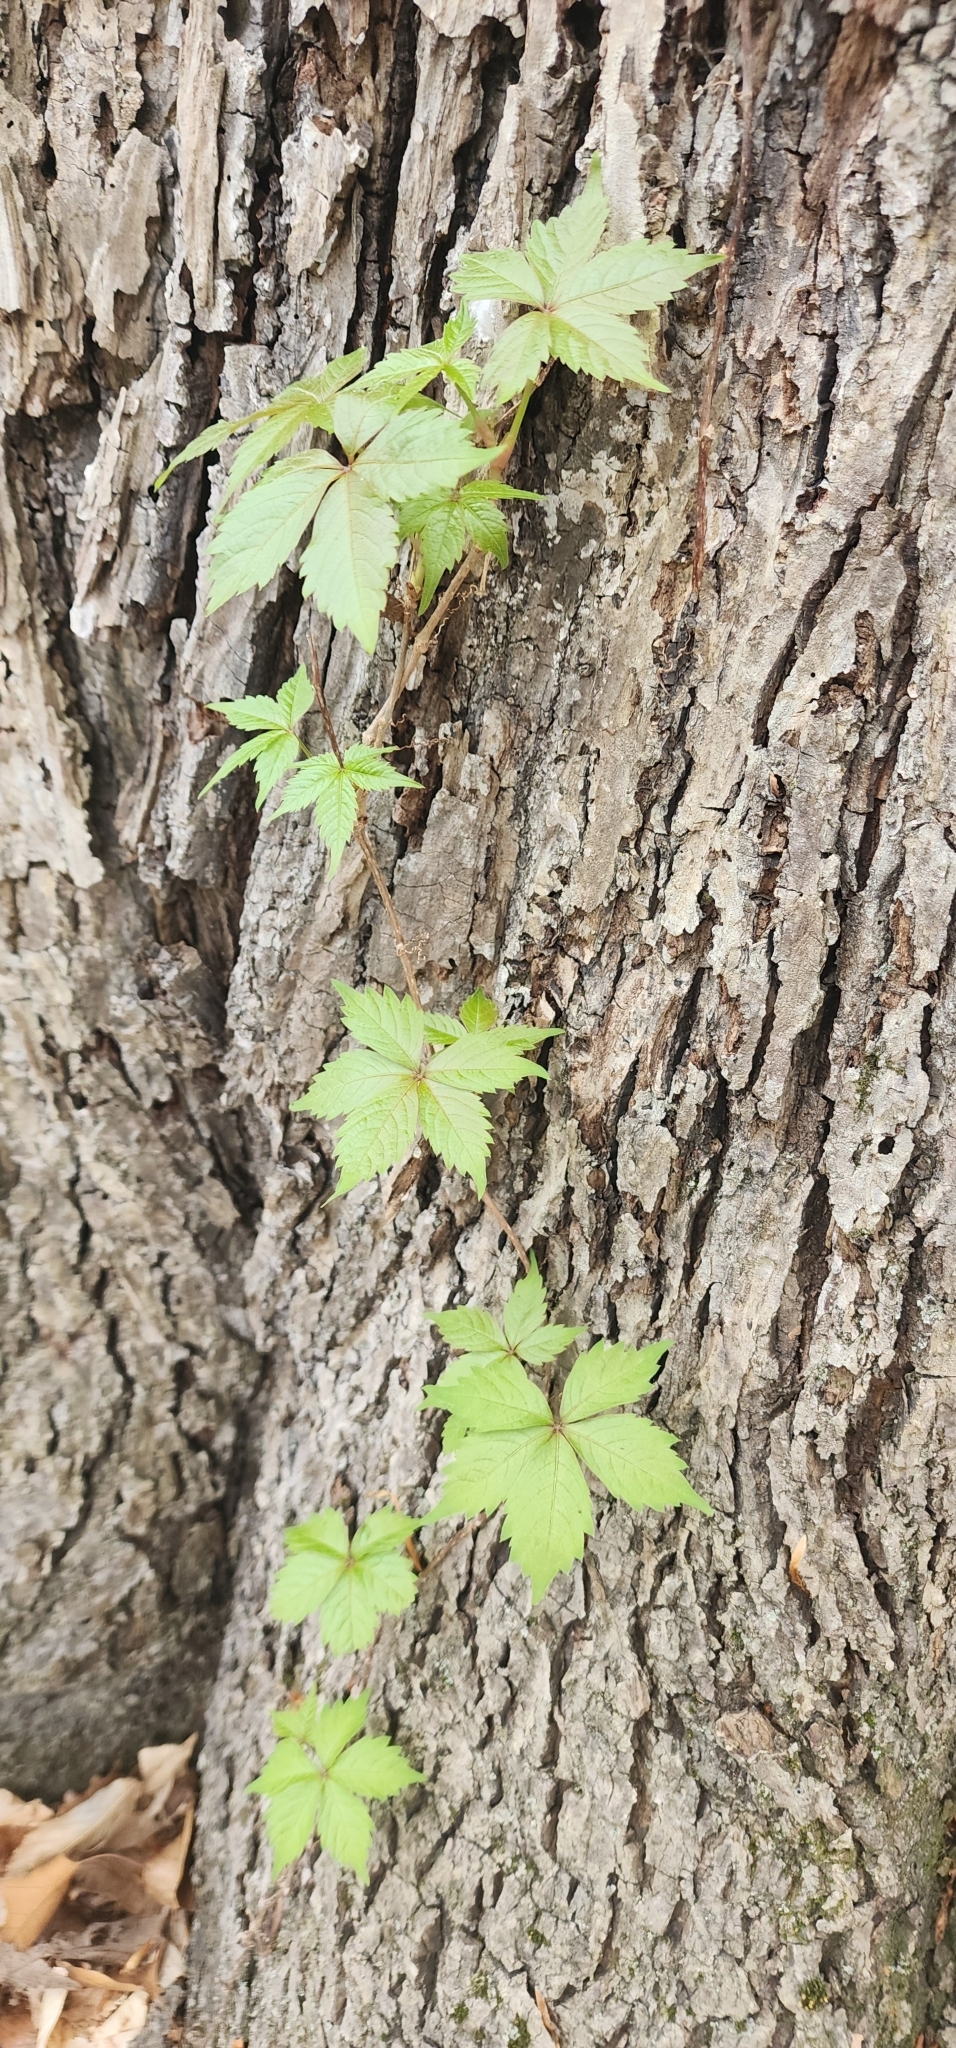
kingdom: Plantae
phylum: Tracheophyta
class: Magnoliopsida
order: Vitales
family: Vitaceae
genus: Parthenocissus
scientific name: Parthenocissus quinquefolia
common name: Virginia-creeper
